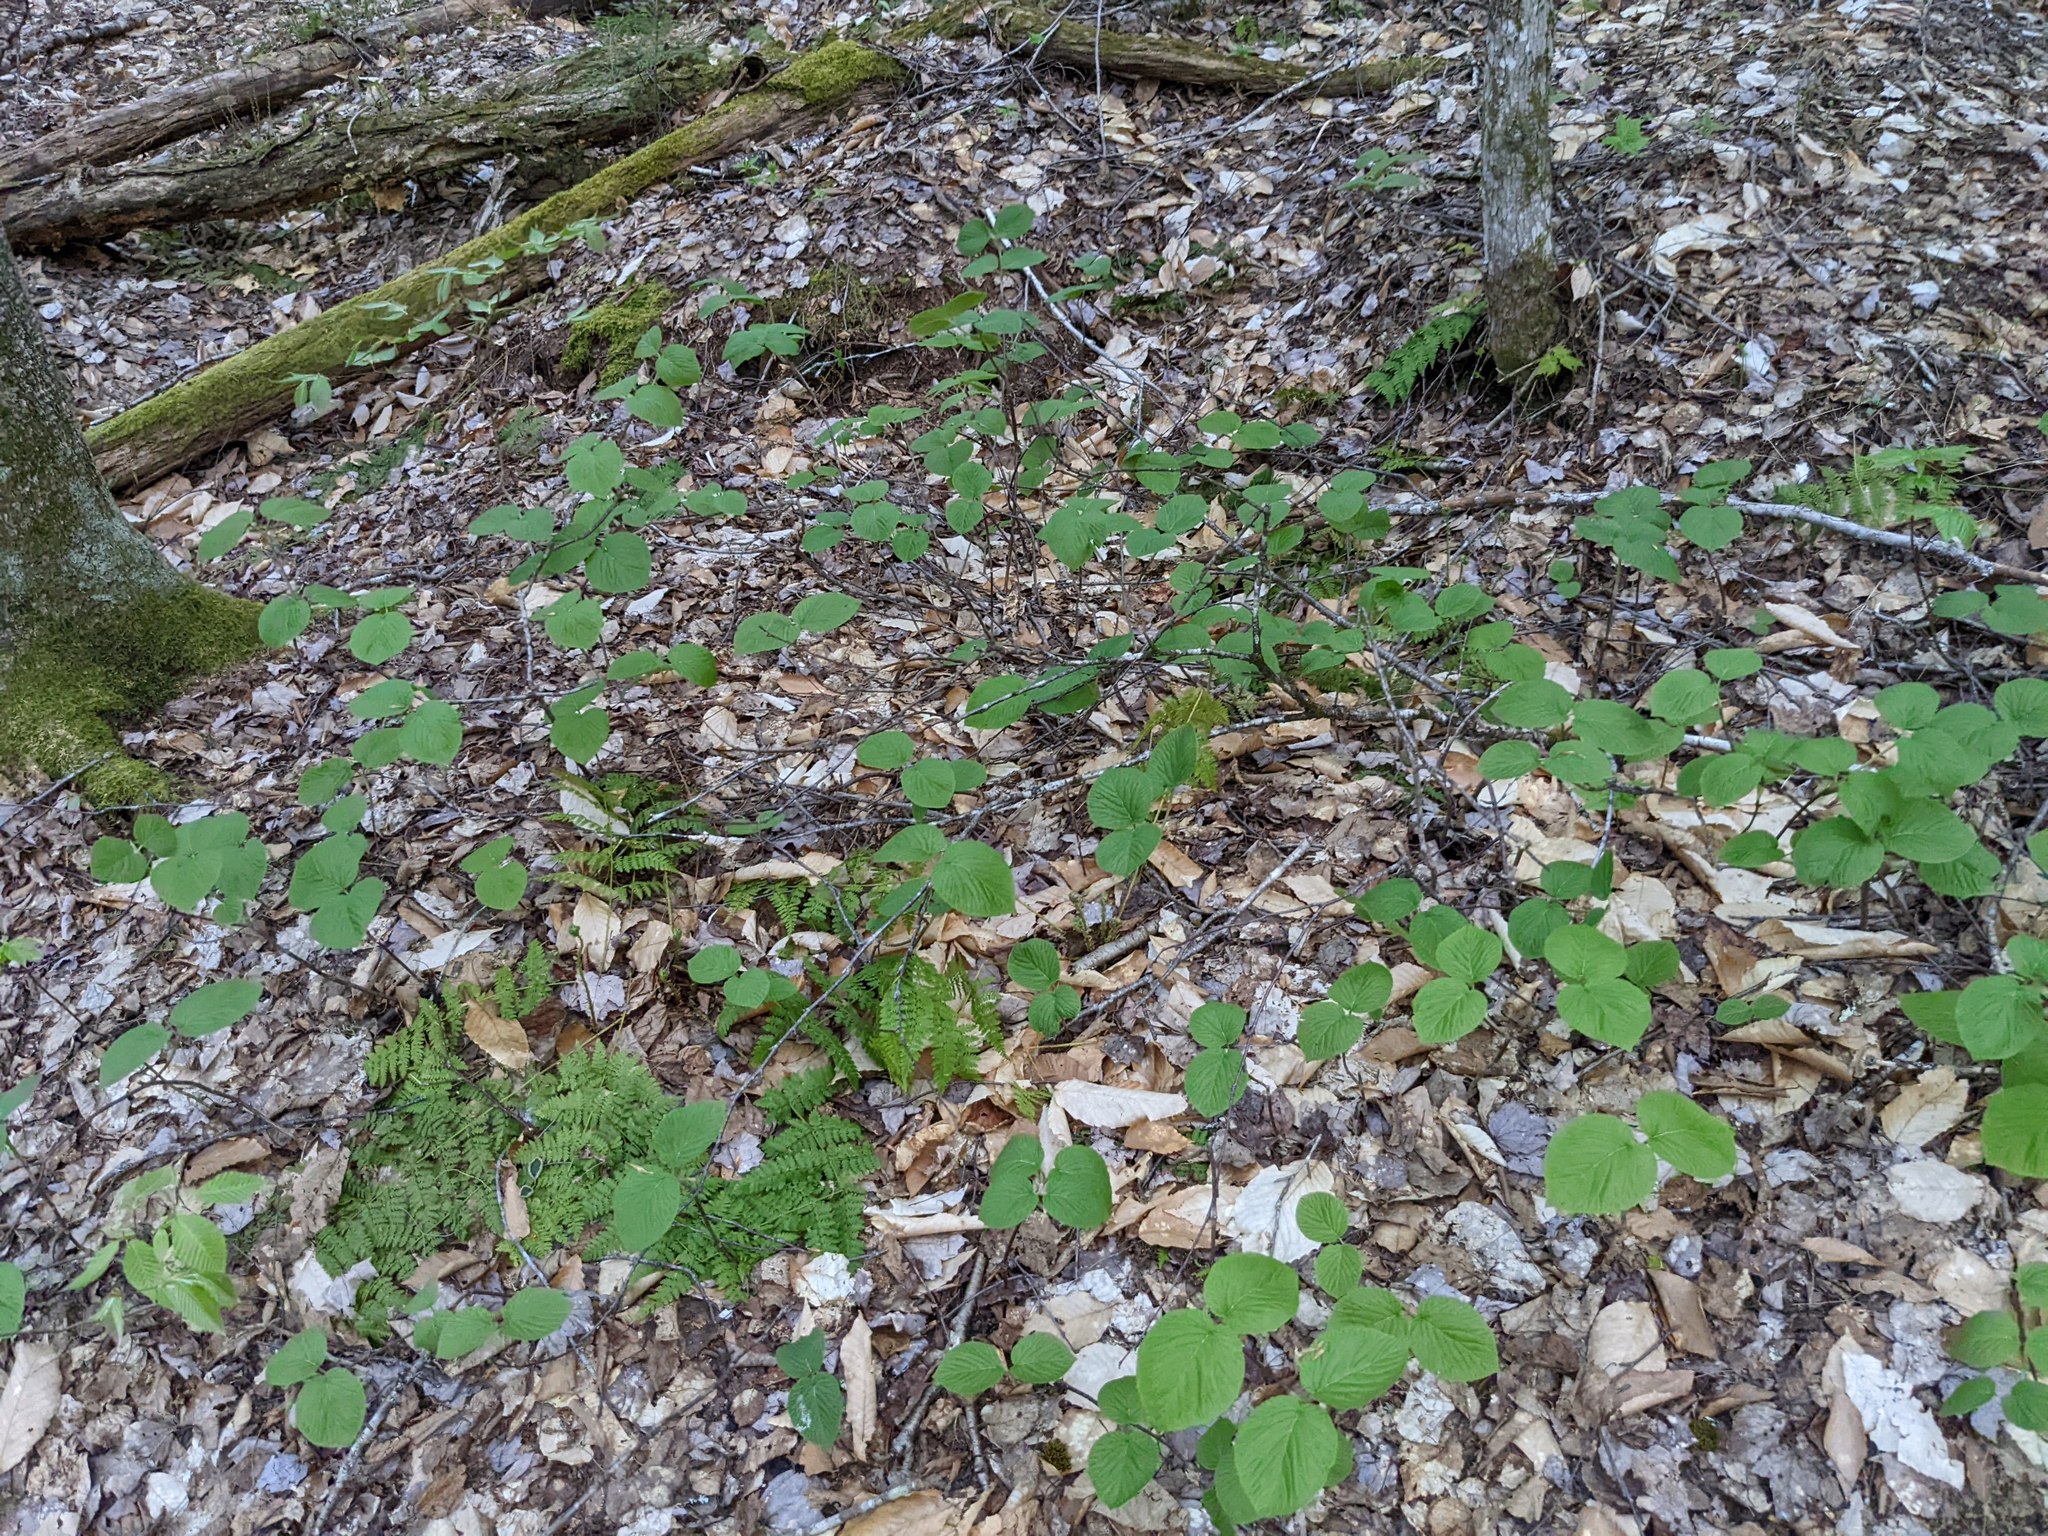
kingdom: Plantae
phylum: Tracheophyta
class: Magnoliopsida
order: Dipsacales
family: Viburnaceae
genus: Viburnum
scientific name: Viburnum lantanoides
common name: Hobblebush
